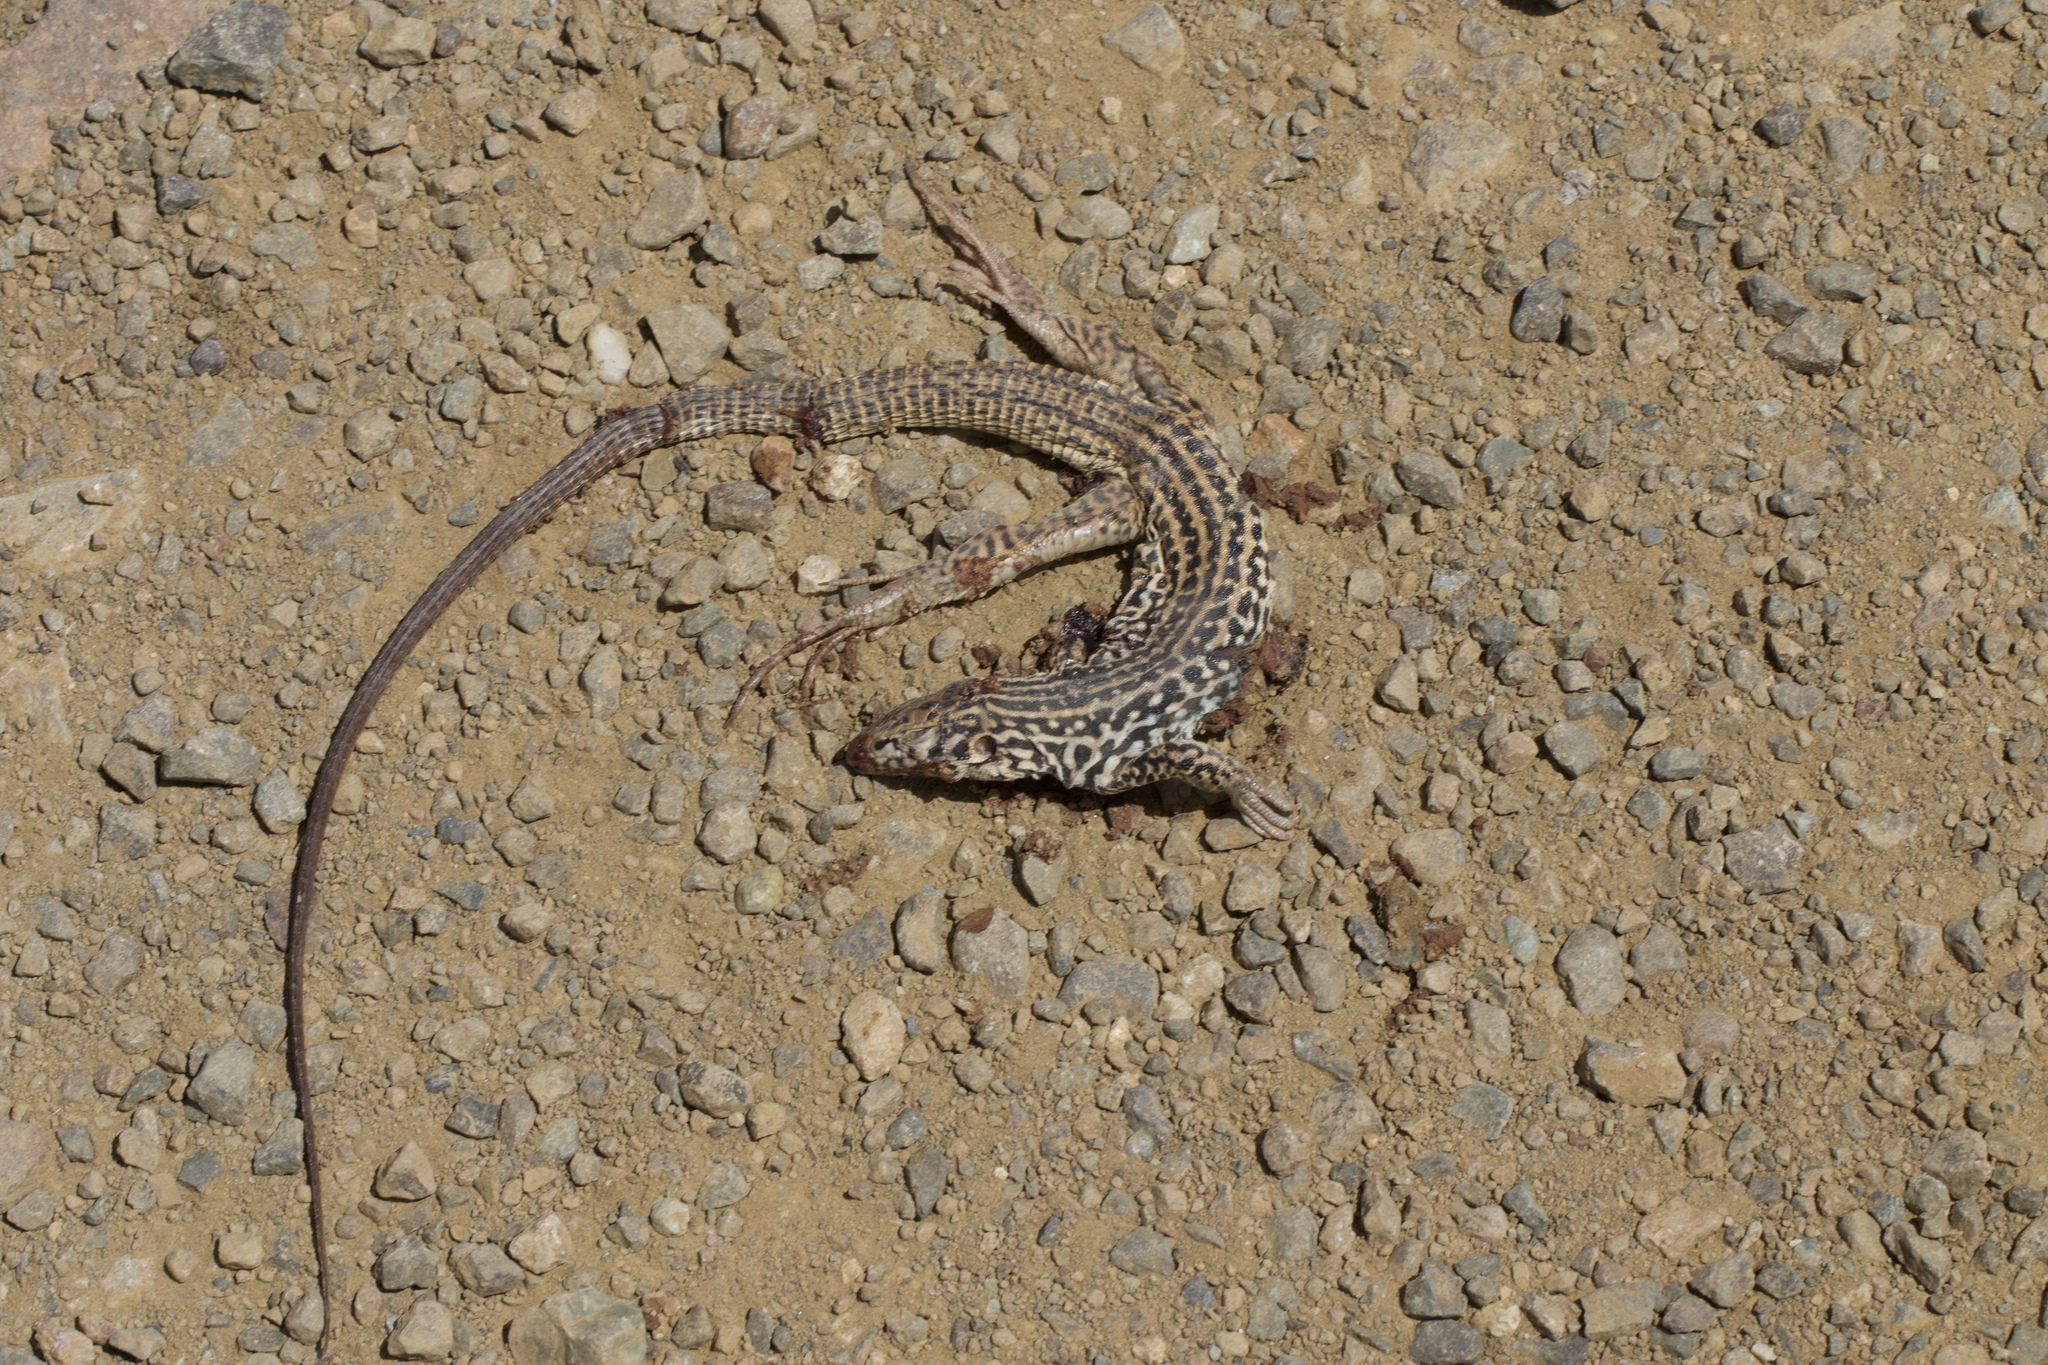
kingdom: Animalia
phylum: Chordata
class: Squamata
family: Teiidae
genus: Aspidoscelis
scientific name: Aspidoscelis tigris
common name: Tiger whiptail
